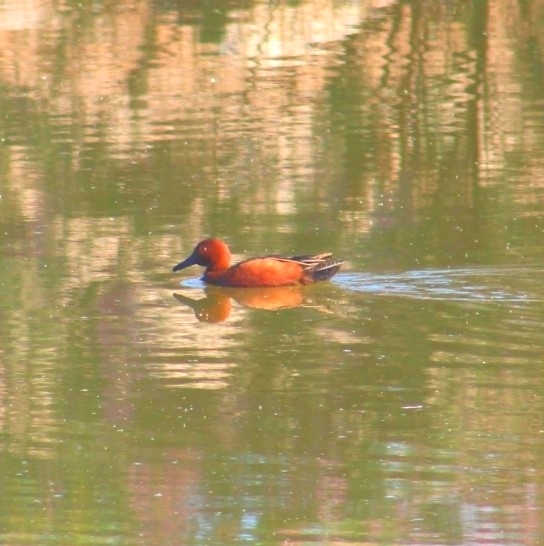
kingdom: Animalia
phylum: Chordata
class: Aves
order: Anseriformes
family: Anatidae
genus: Spatula
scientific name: Spatula cyanoptera
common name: Cinnamon teal
